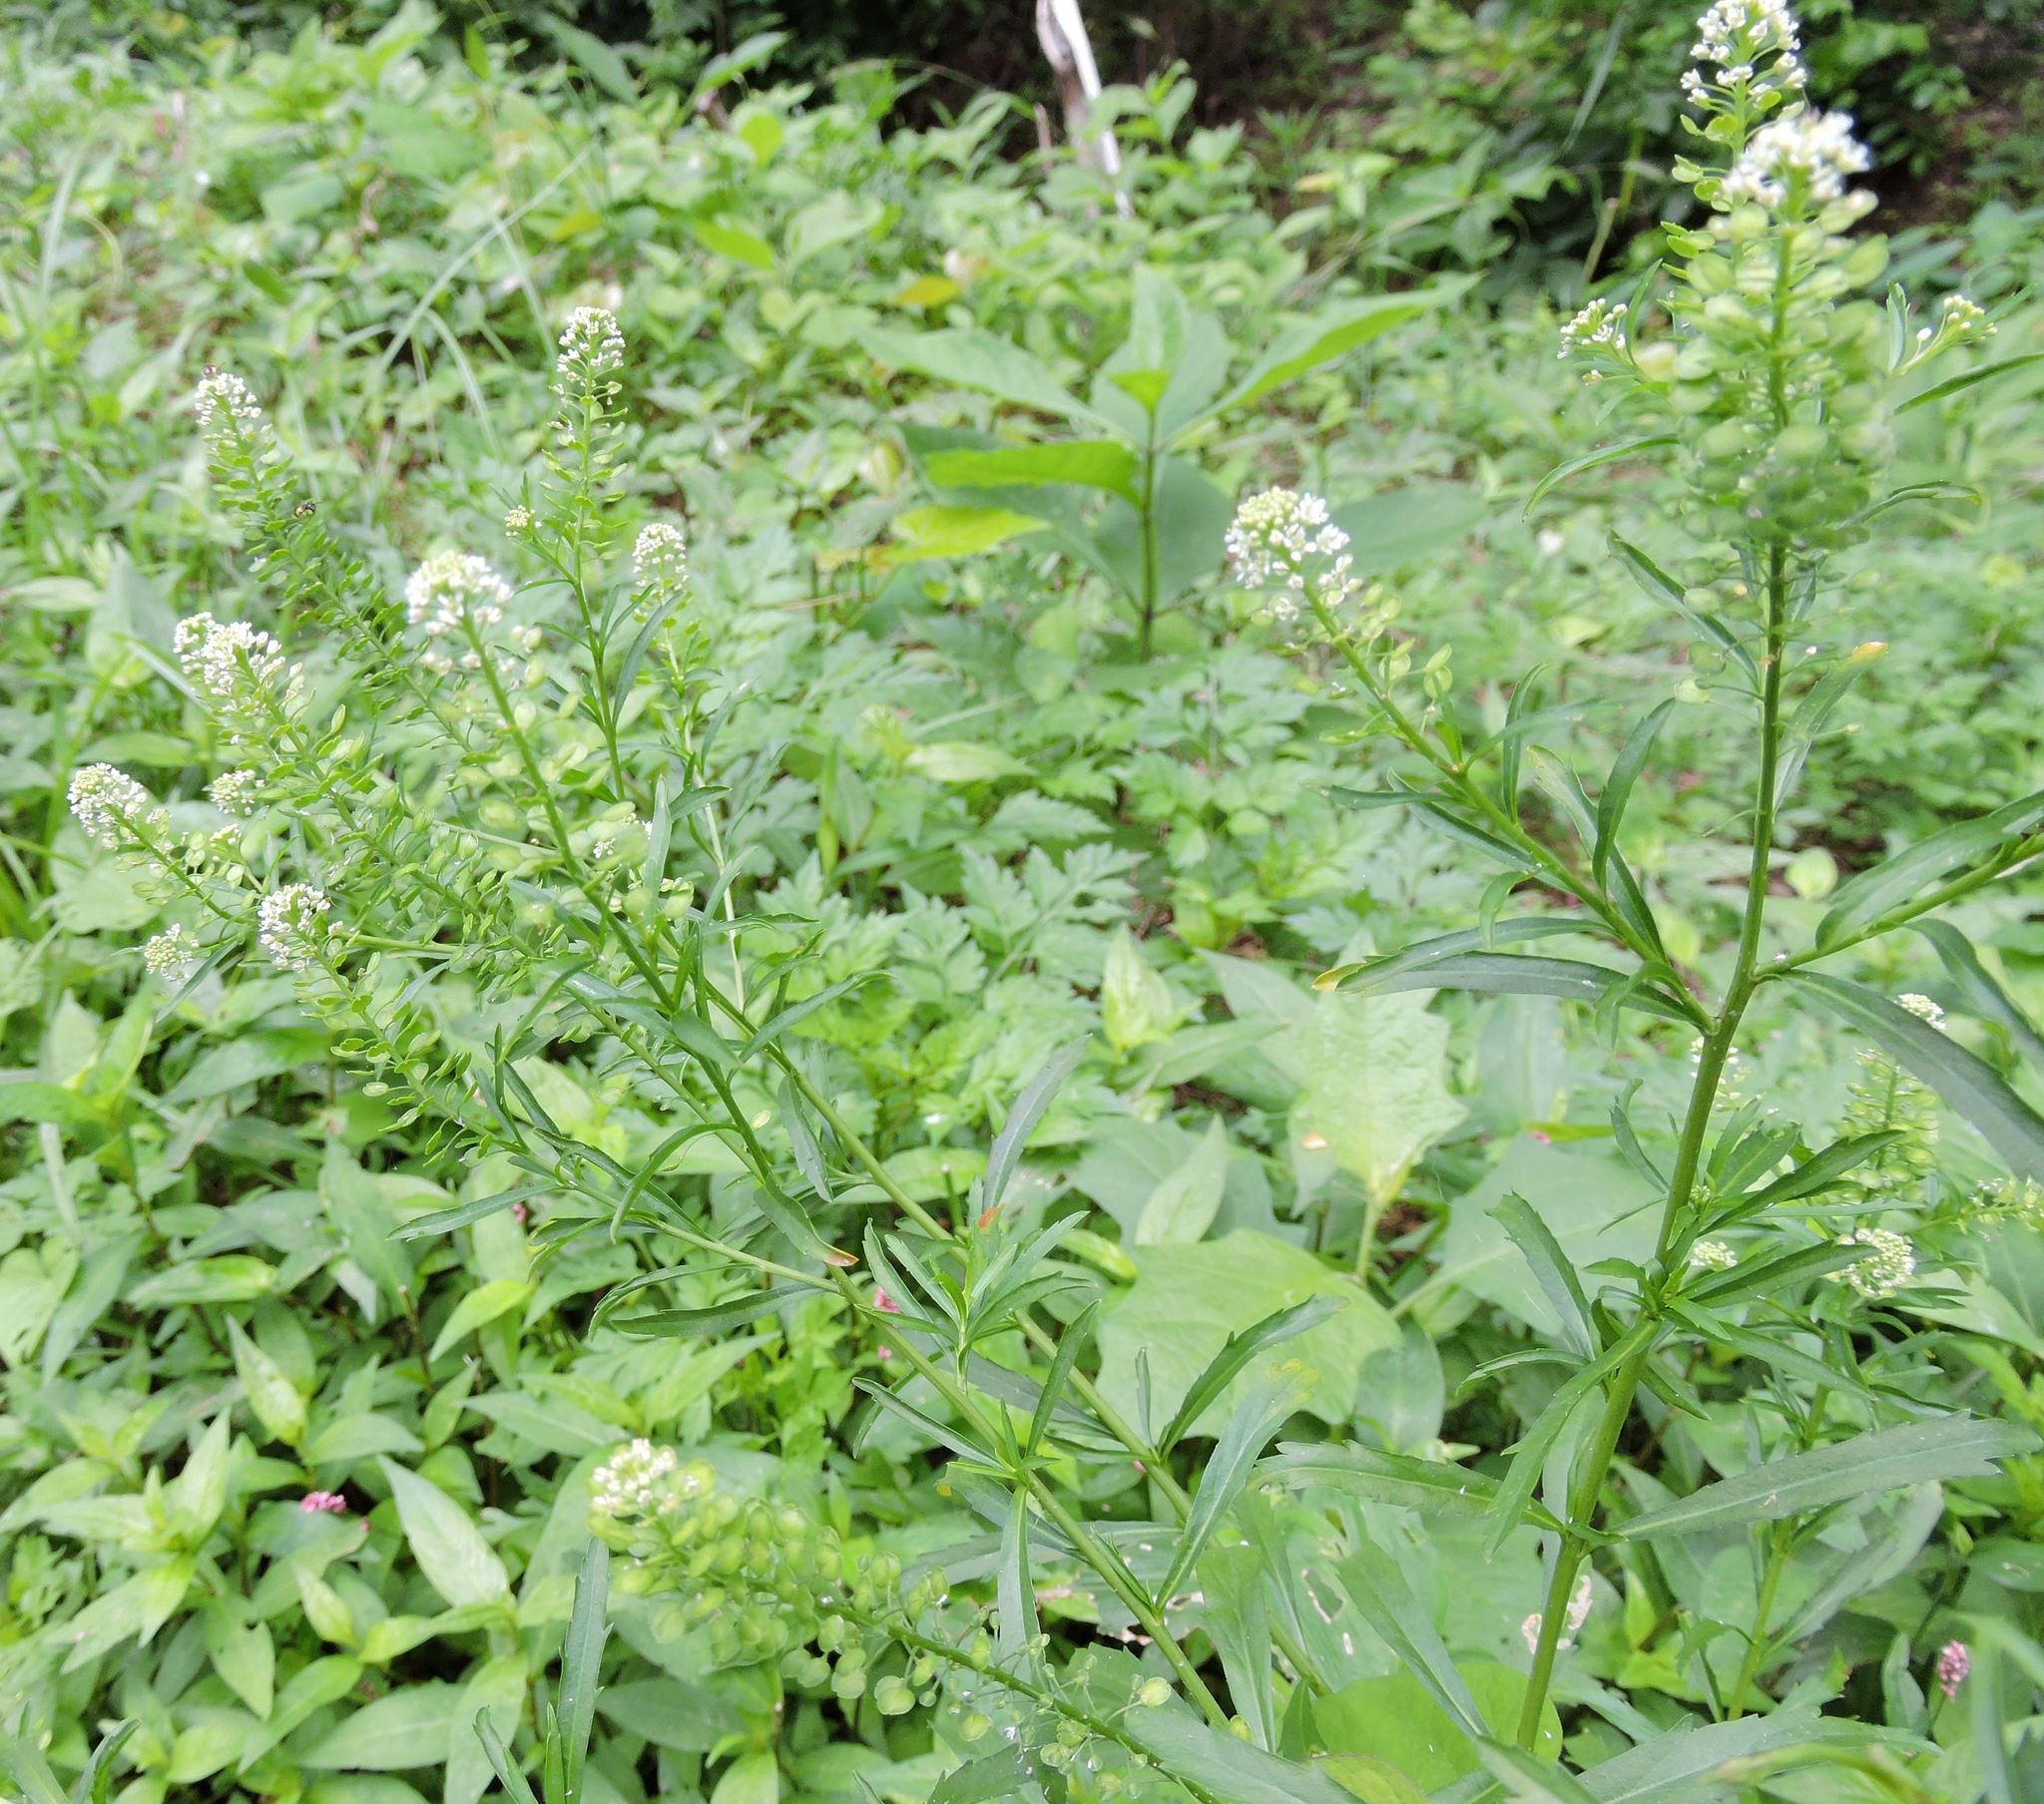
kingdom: Plantae
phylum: Tracheophyta
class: Magnoliopsida
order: Brassicales
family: Brassicaceae
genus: Lepidium
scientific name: Lepidium virginicum
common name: Least pepperwort
